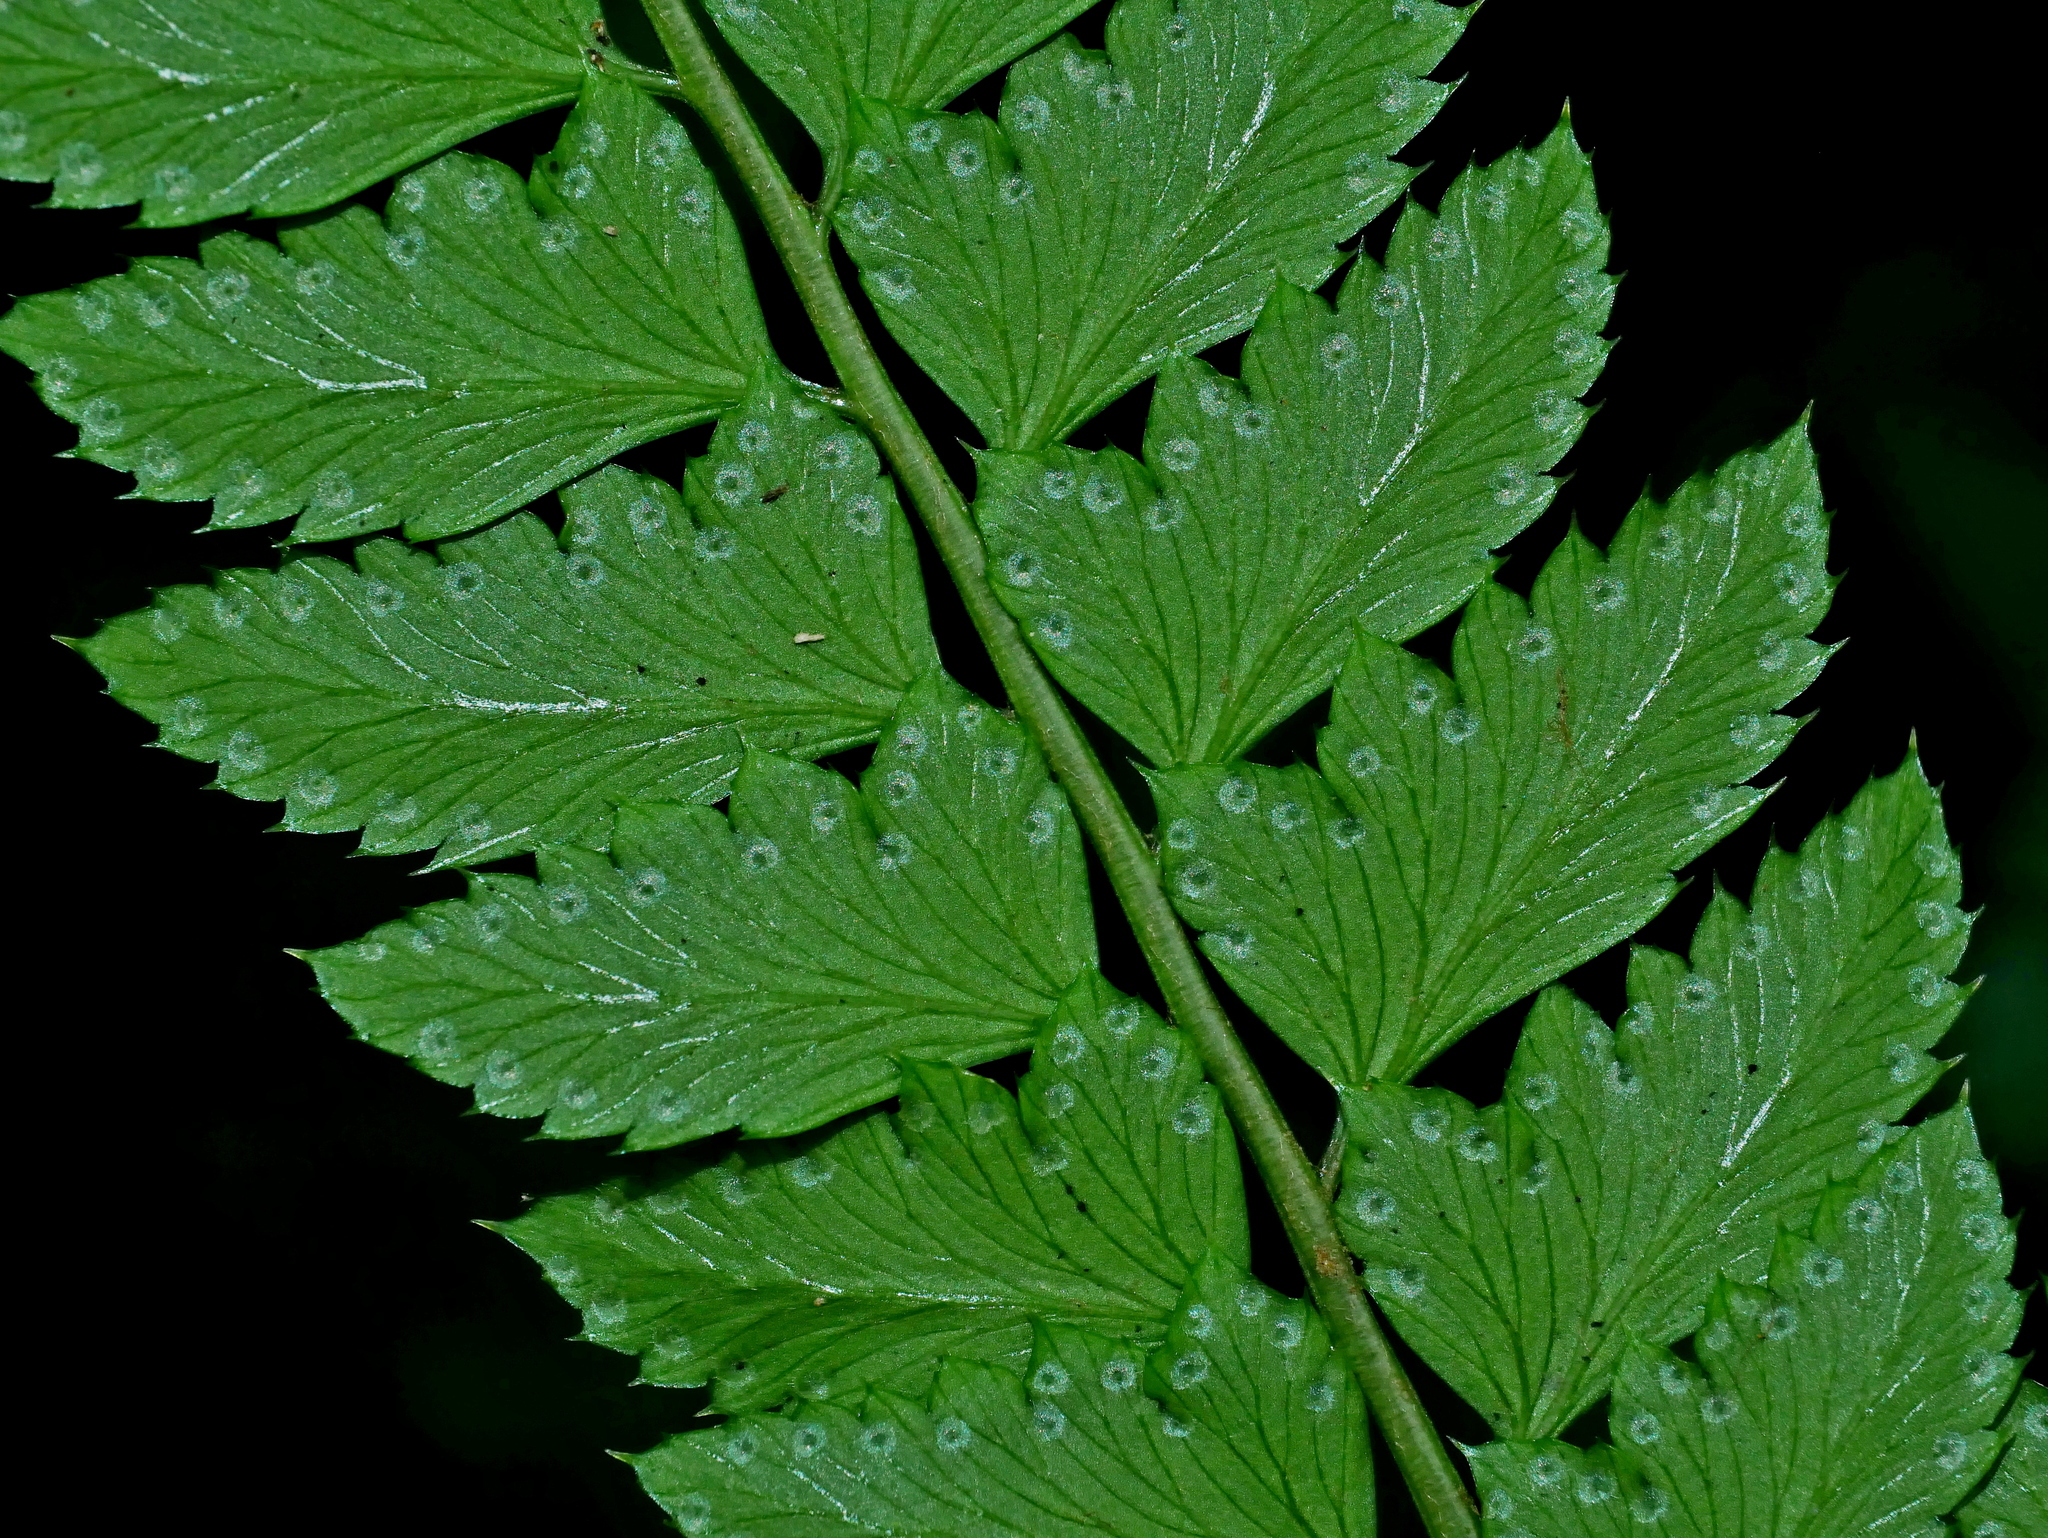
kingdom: Plantae
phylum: Tracheophyta
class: Polypodiopsida
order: Polypodiales
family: Dryopteridaceae
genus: Arachniodes
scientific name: Arachniodes rhomboidea
